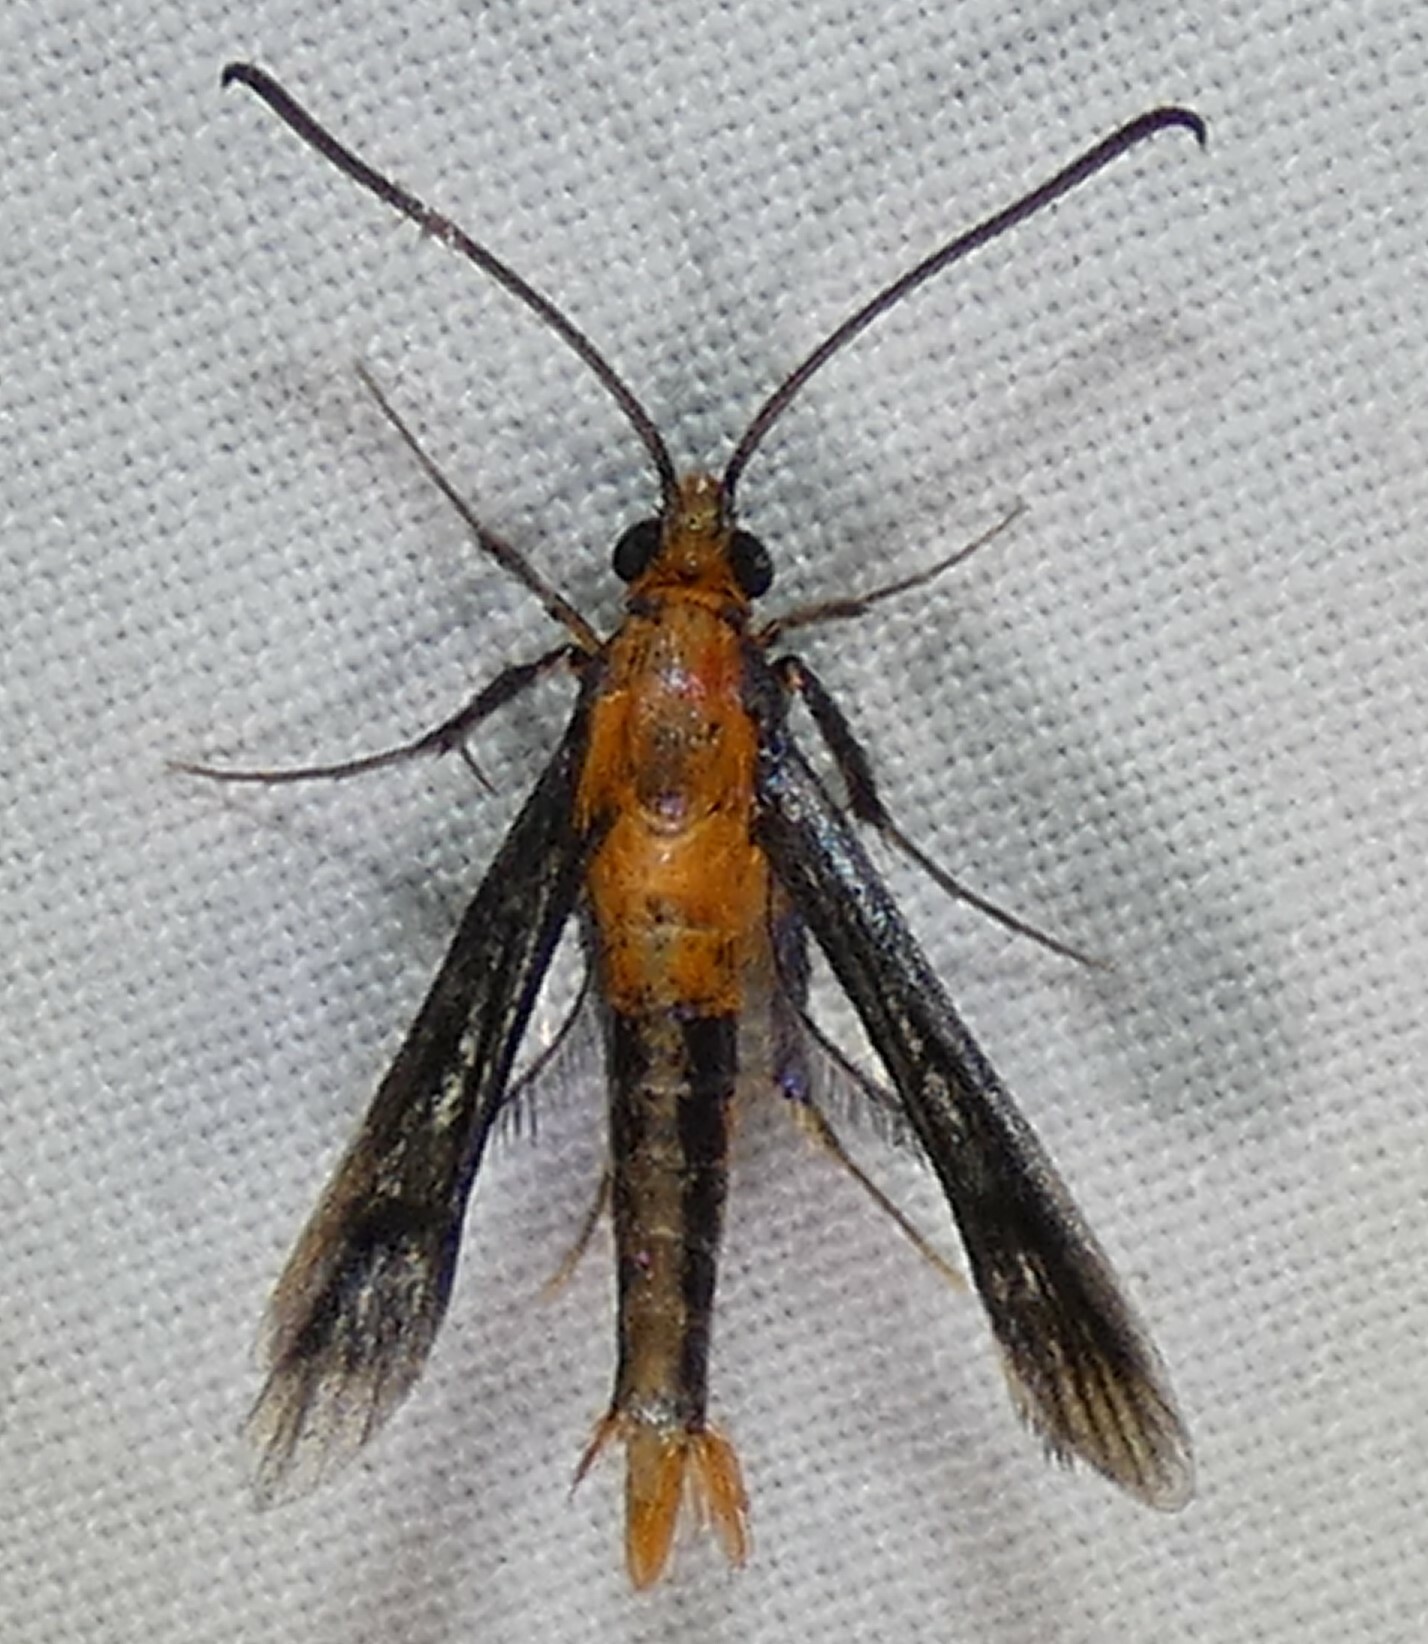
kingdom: Animalia
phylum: Arthropoda
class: Insecta
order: Lepidoptera
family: Sesiidae
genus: Synanthedon
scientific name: Synanthedon acerni
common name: Maple callus borer moth
